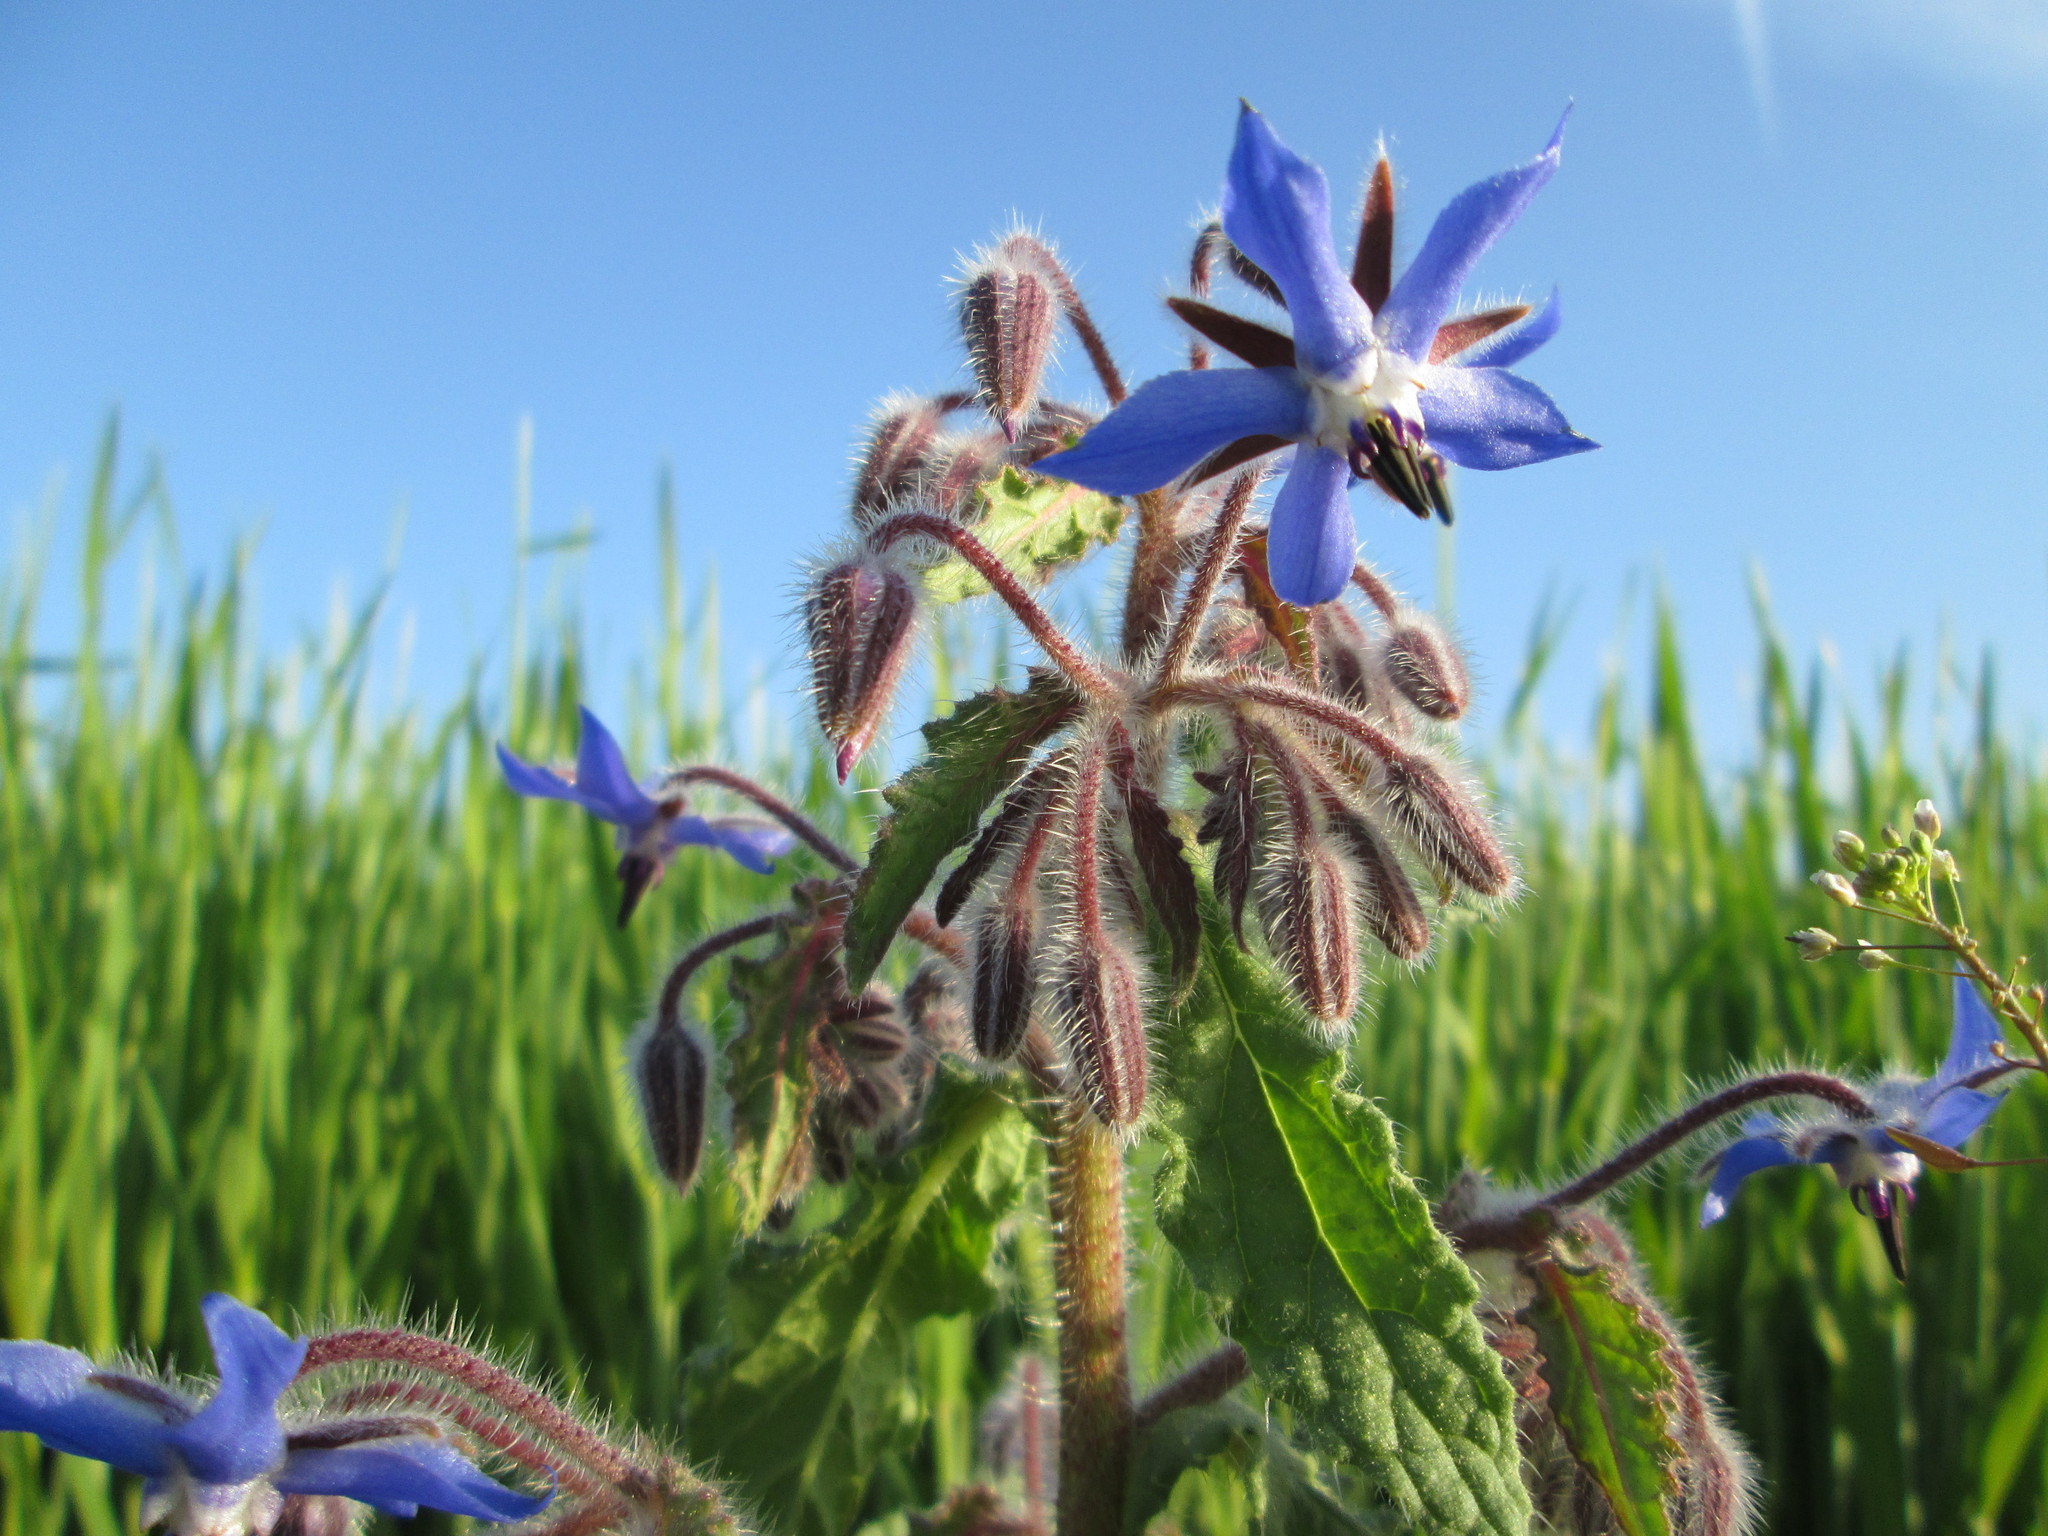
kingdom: Plantae
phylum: Tracheophyta
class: Magnoliopsida
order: Boraginales
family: Boraginaceae
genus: Borago
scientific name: Borago officinalis
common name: Borage
